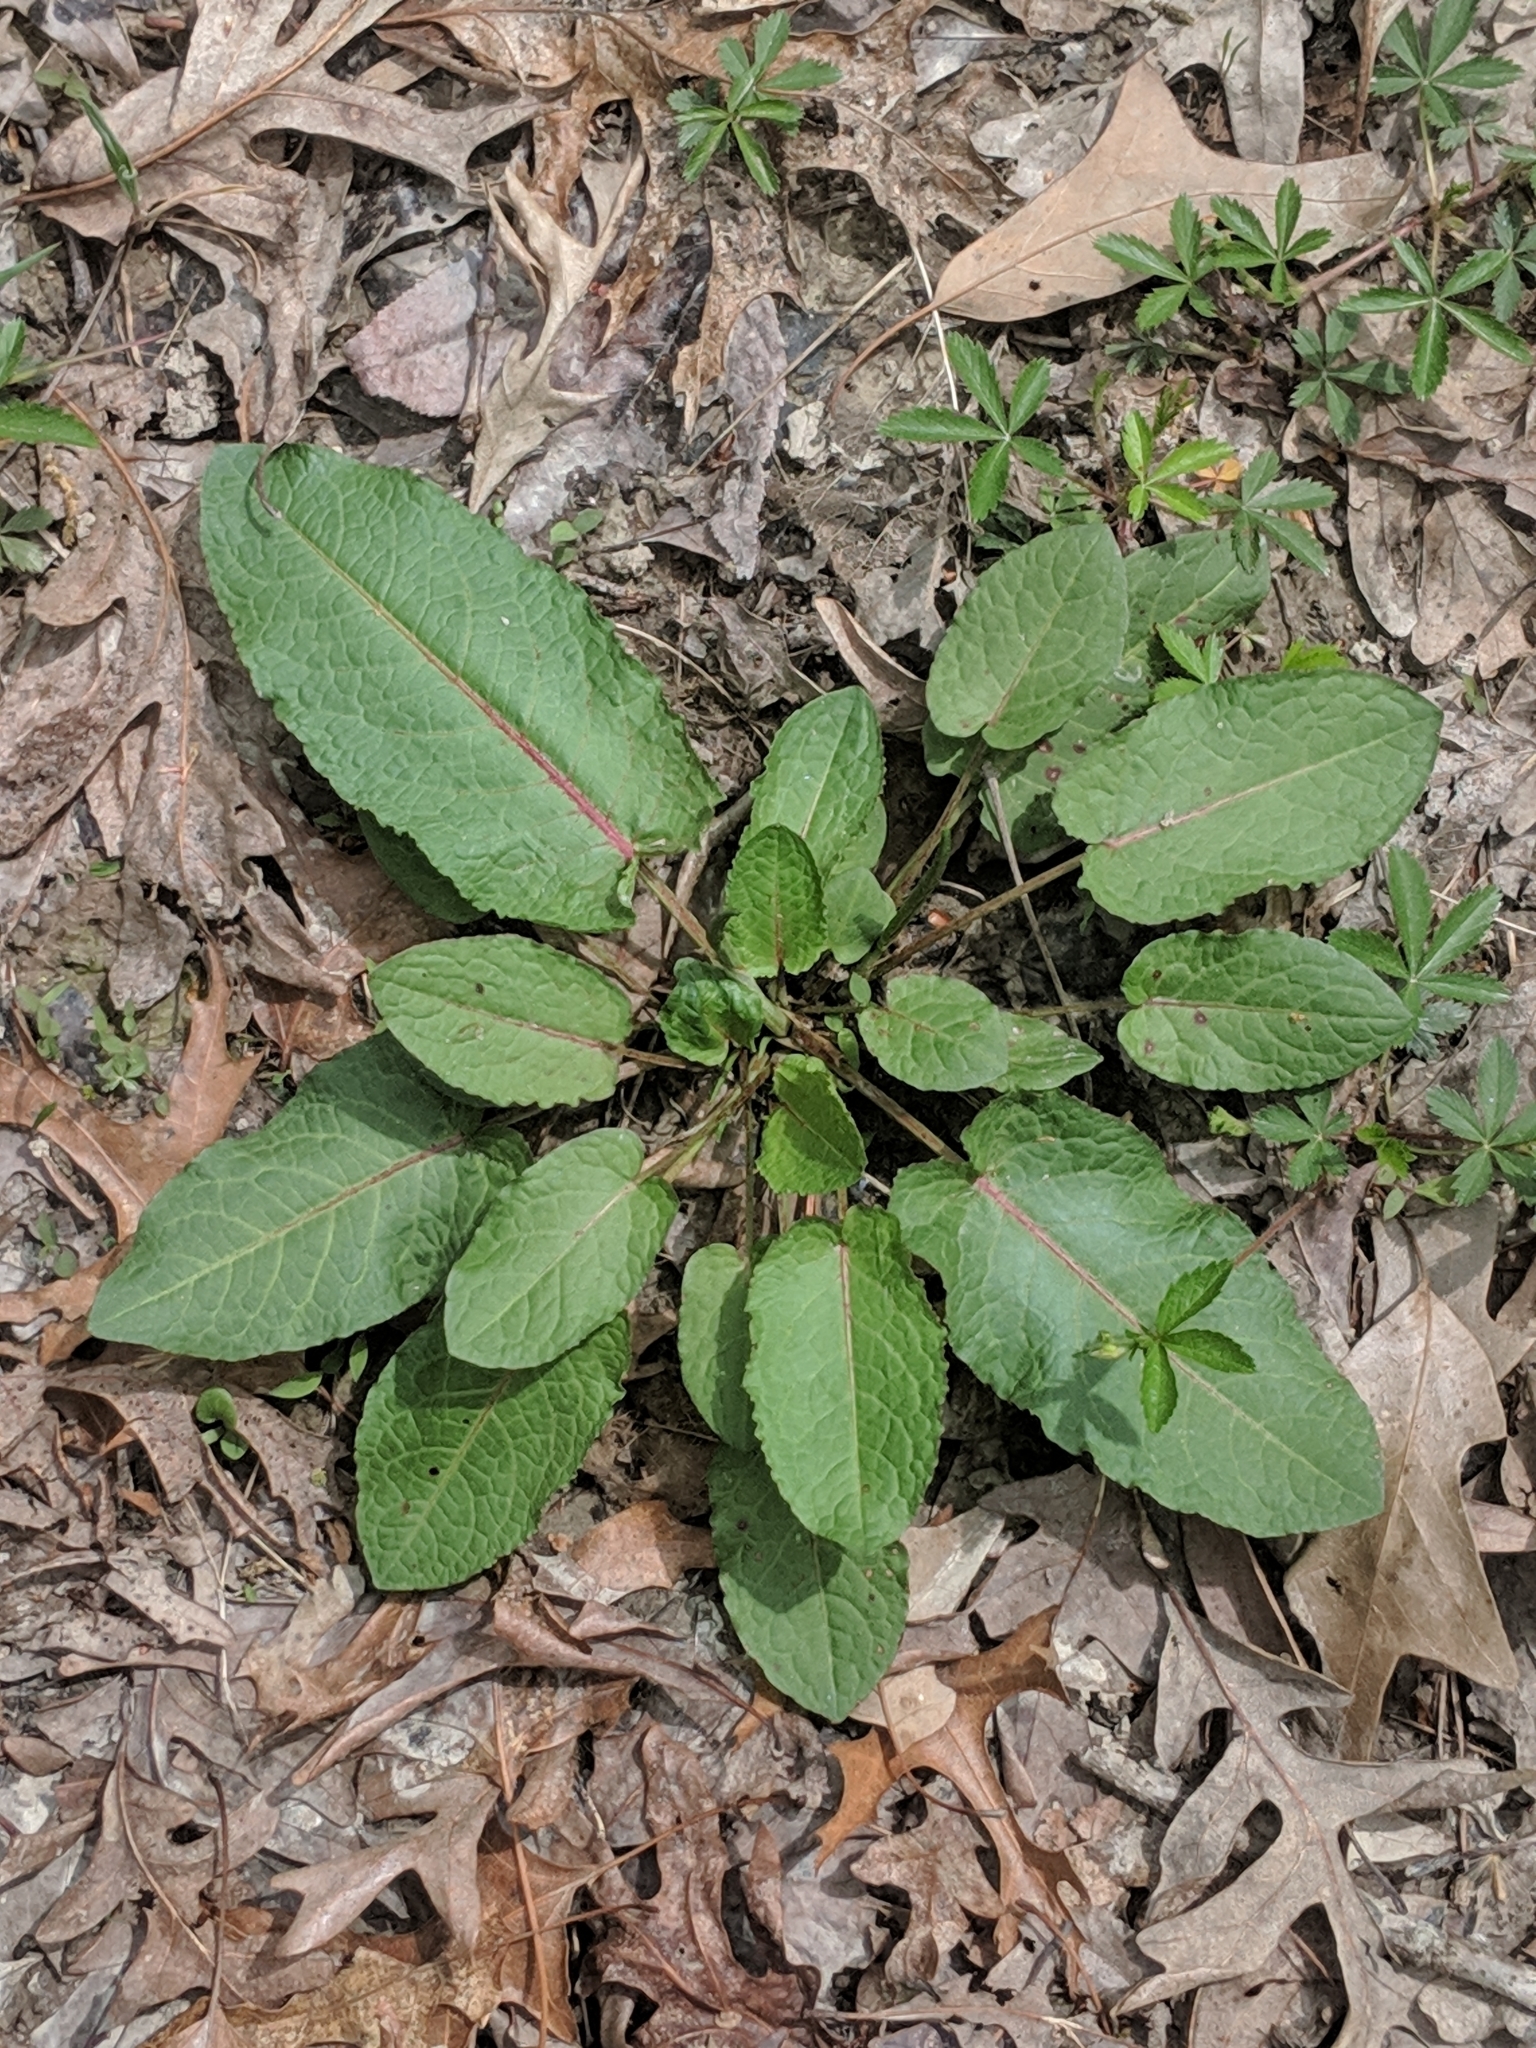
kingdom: Plantae
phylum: Tracheophyta
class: Magnoliopsida
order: Caryophyllales
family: Polygonaceae
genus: Rumex
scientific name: Rumex obtusifolius
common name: Bitter dock
